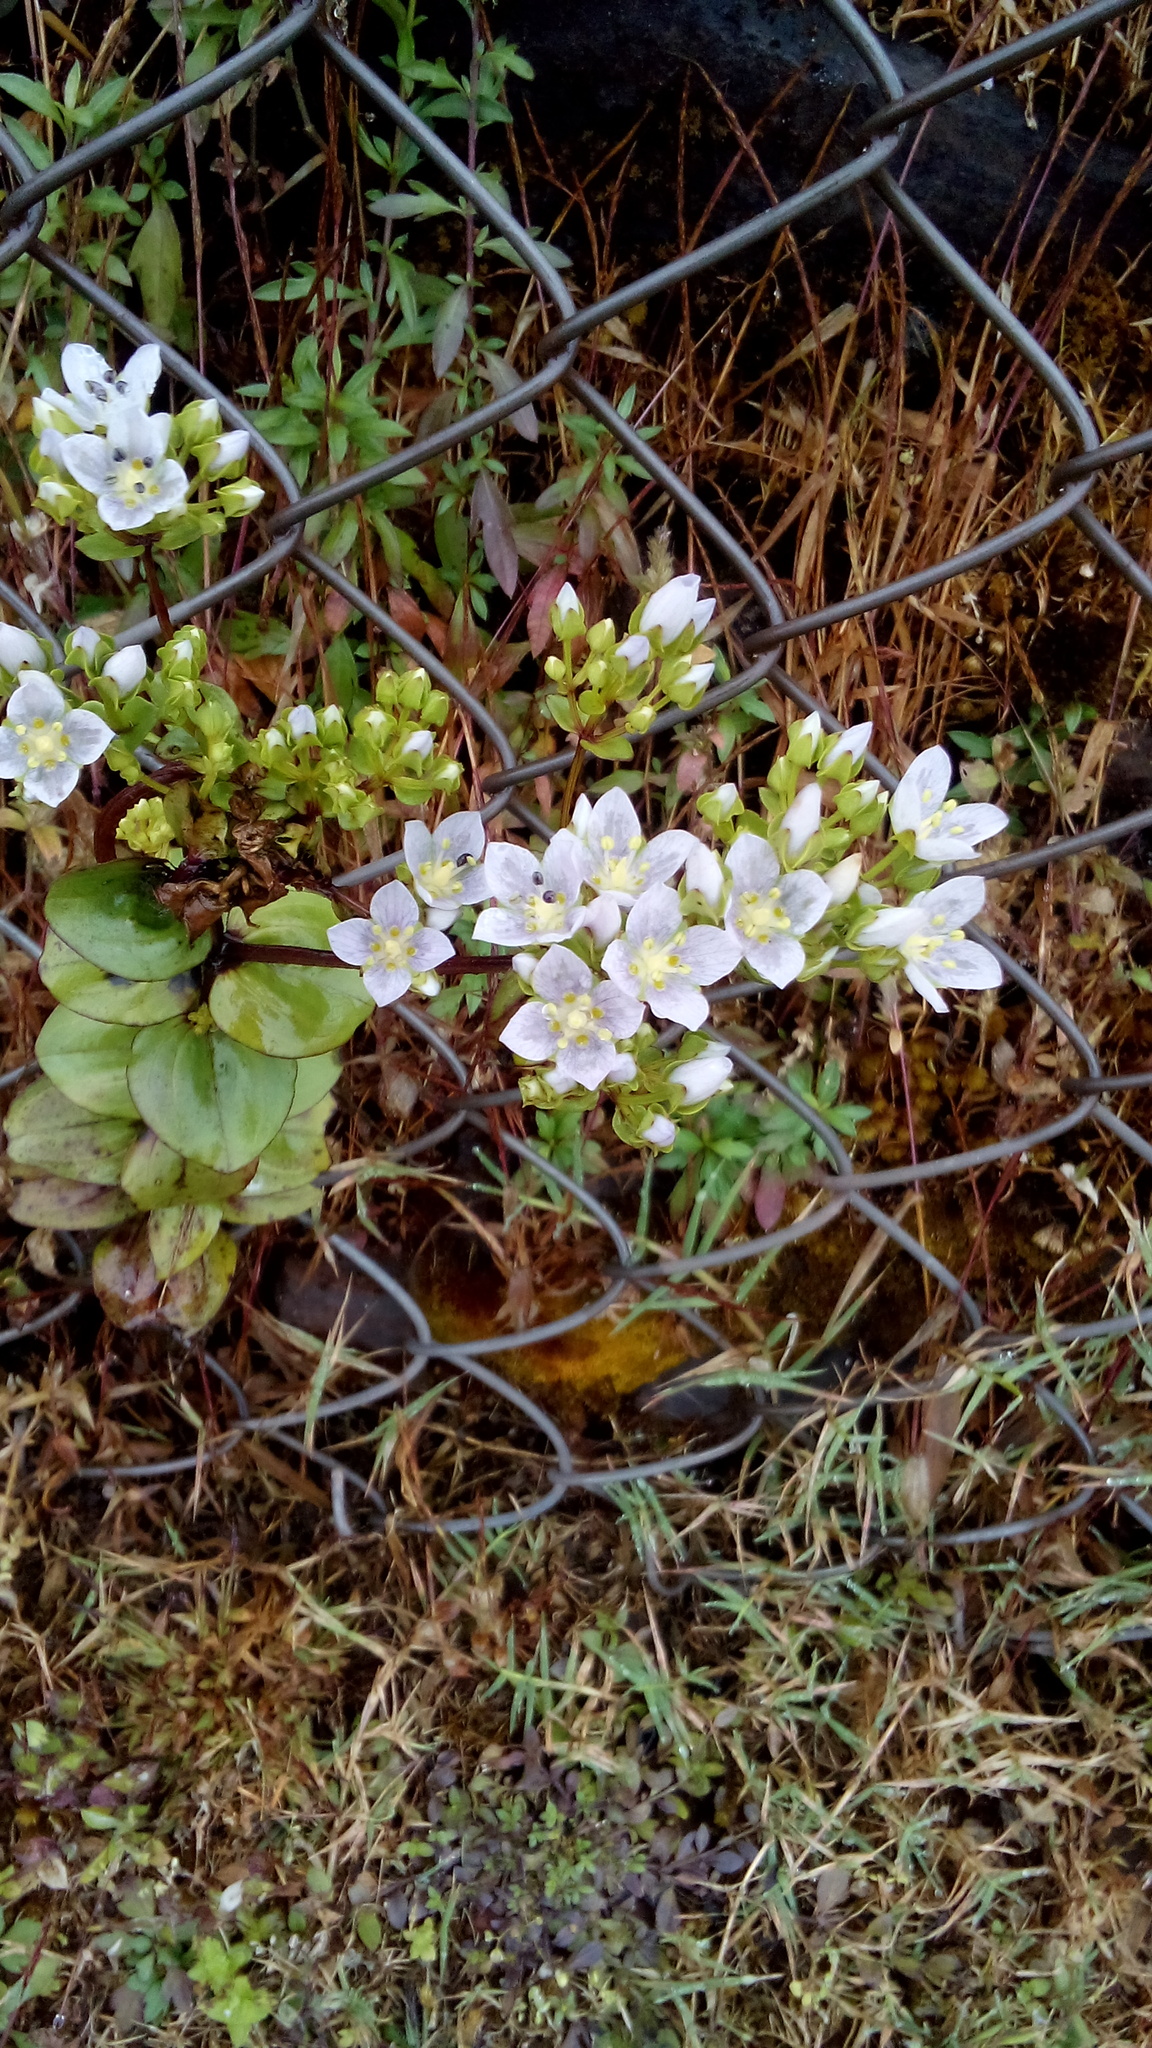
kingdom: Plantae
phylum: Tracheophyta
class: Magnoliopsida
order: Gentianales
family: Gentianaceae
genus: Swertia
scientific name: Swertia beddomei
